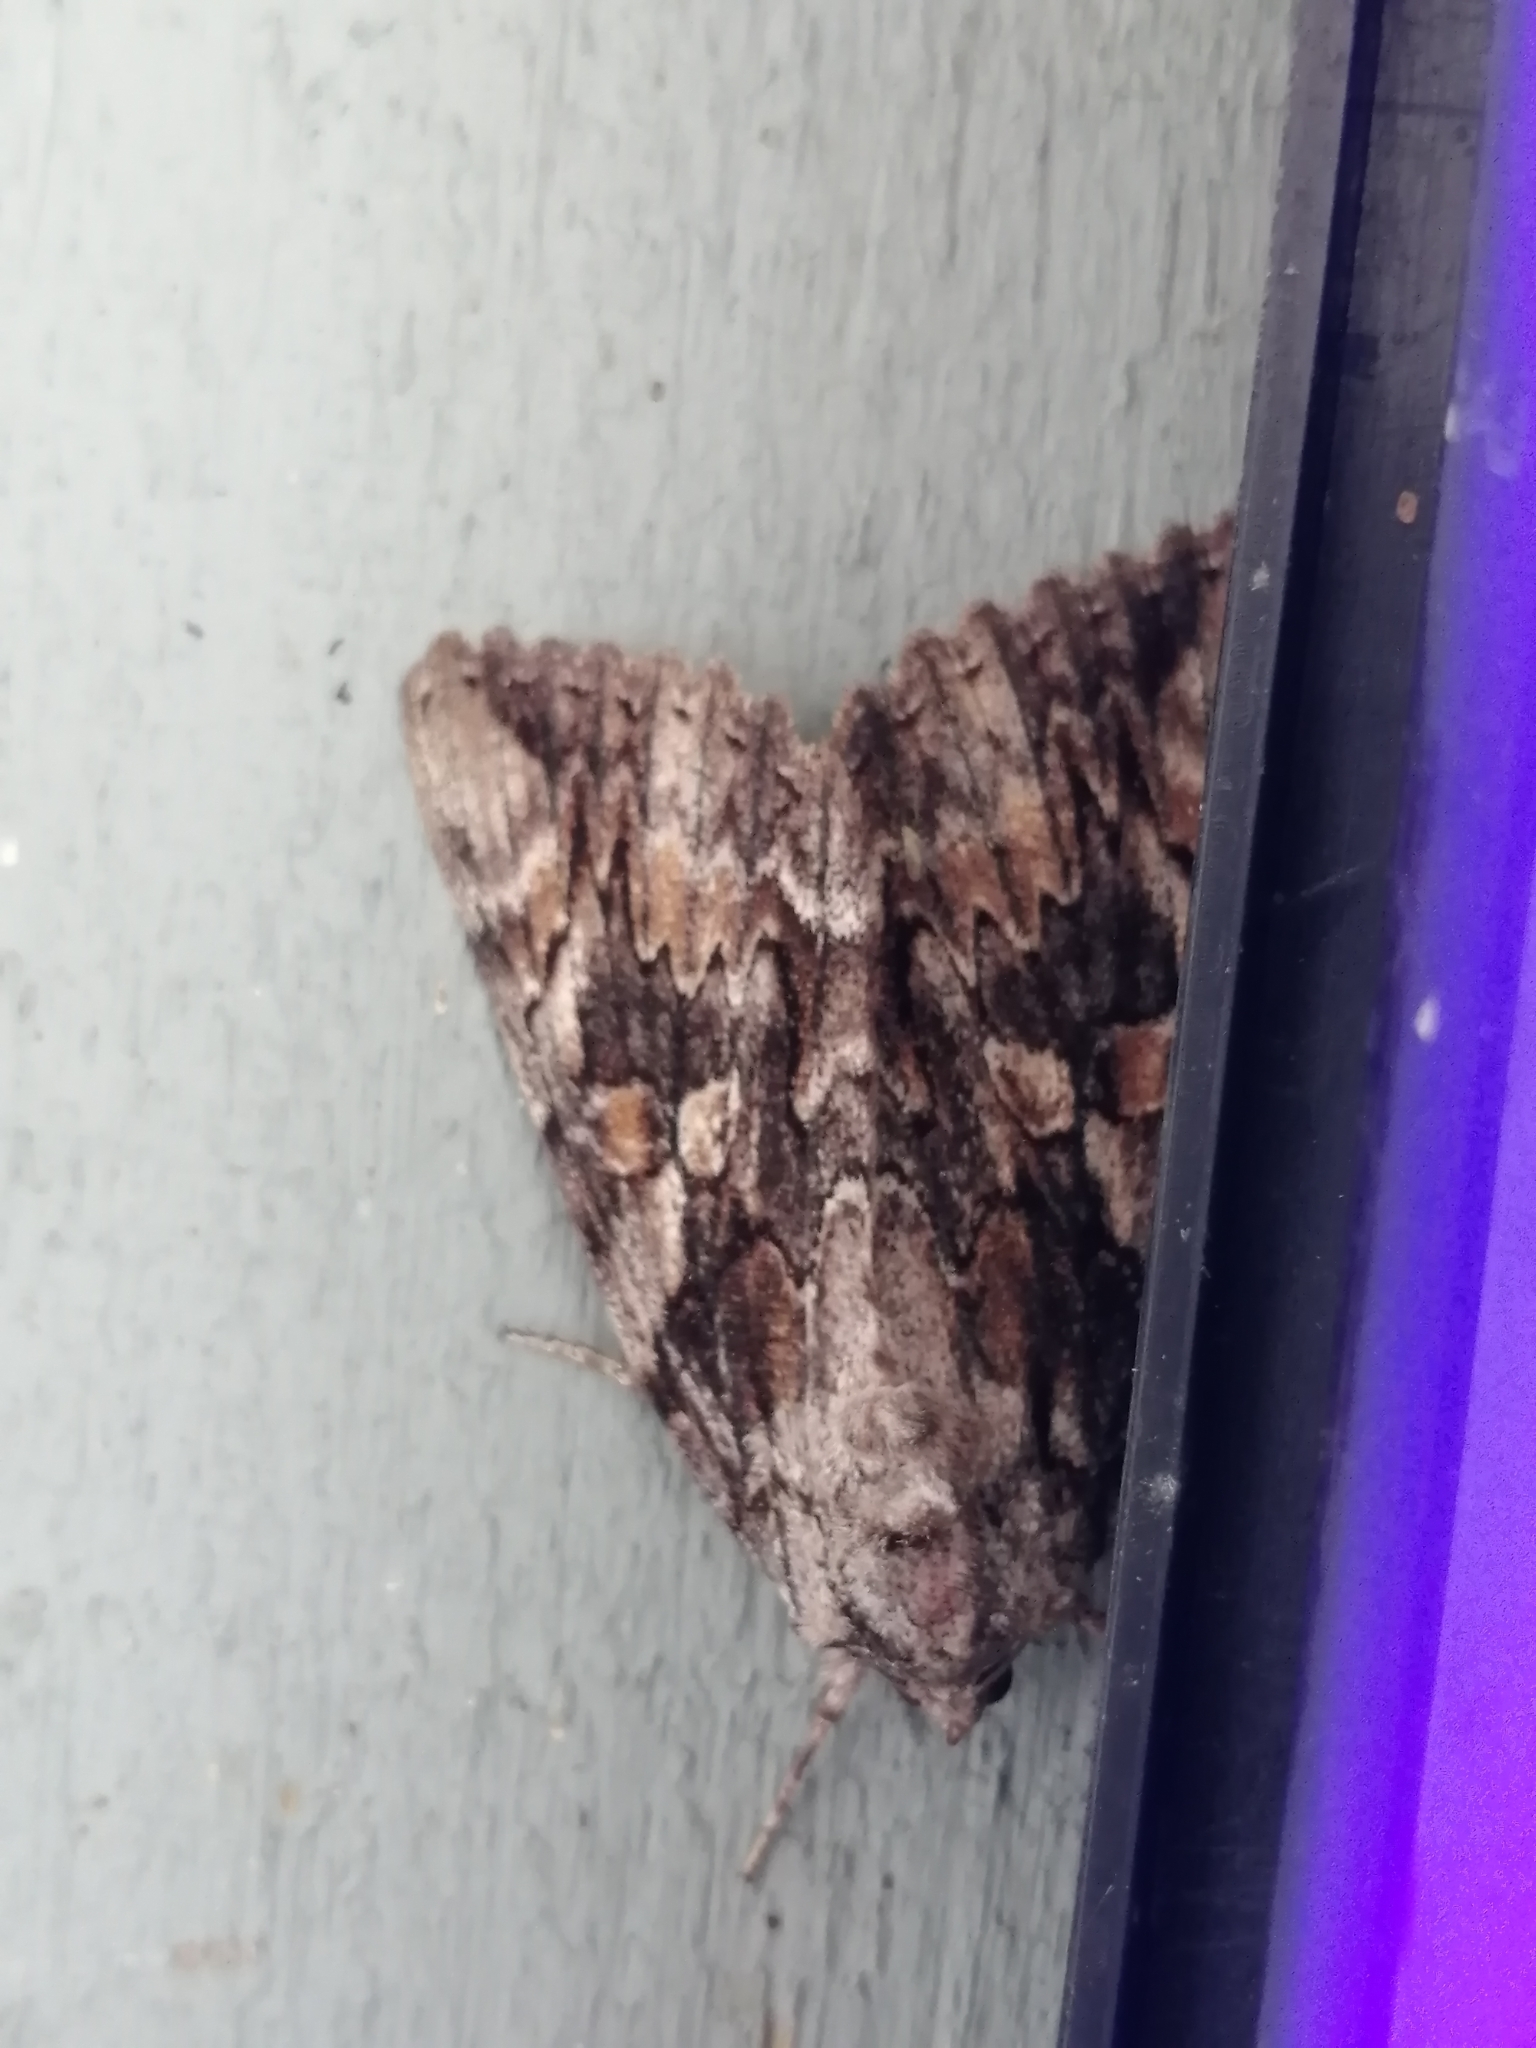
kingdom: Animalia
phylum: Arthropoda
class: Insecta
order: Lepidoptera
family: Erebidae
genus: Catocala
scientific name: Catocala neogama
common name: Bride underwing
